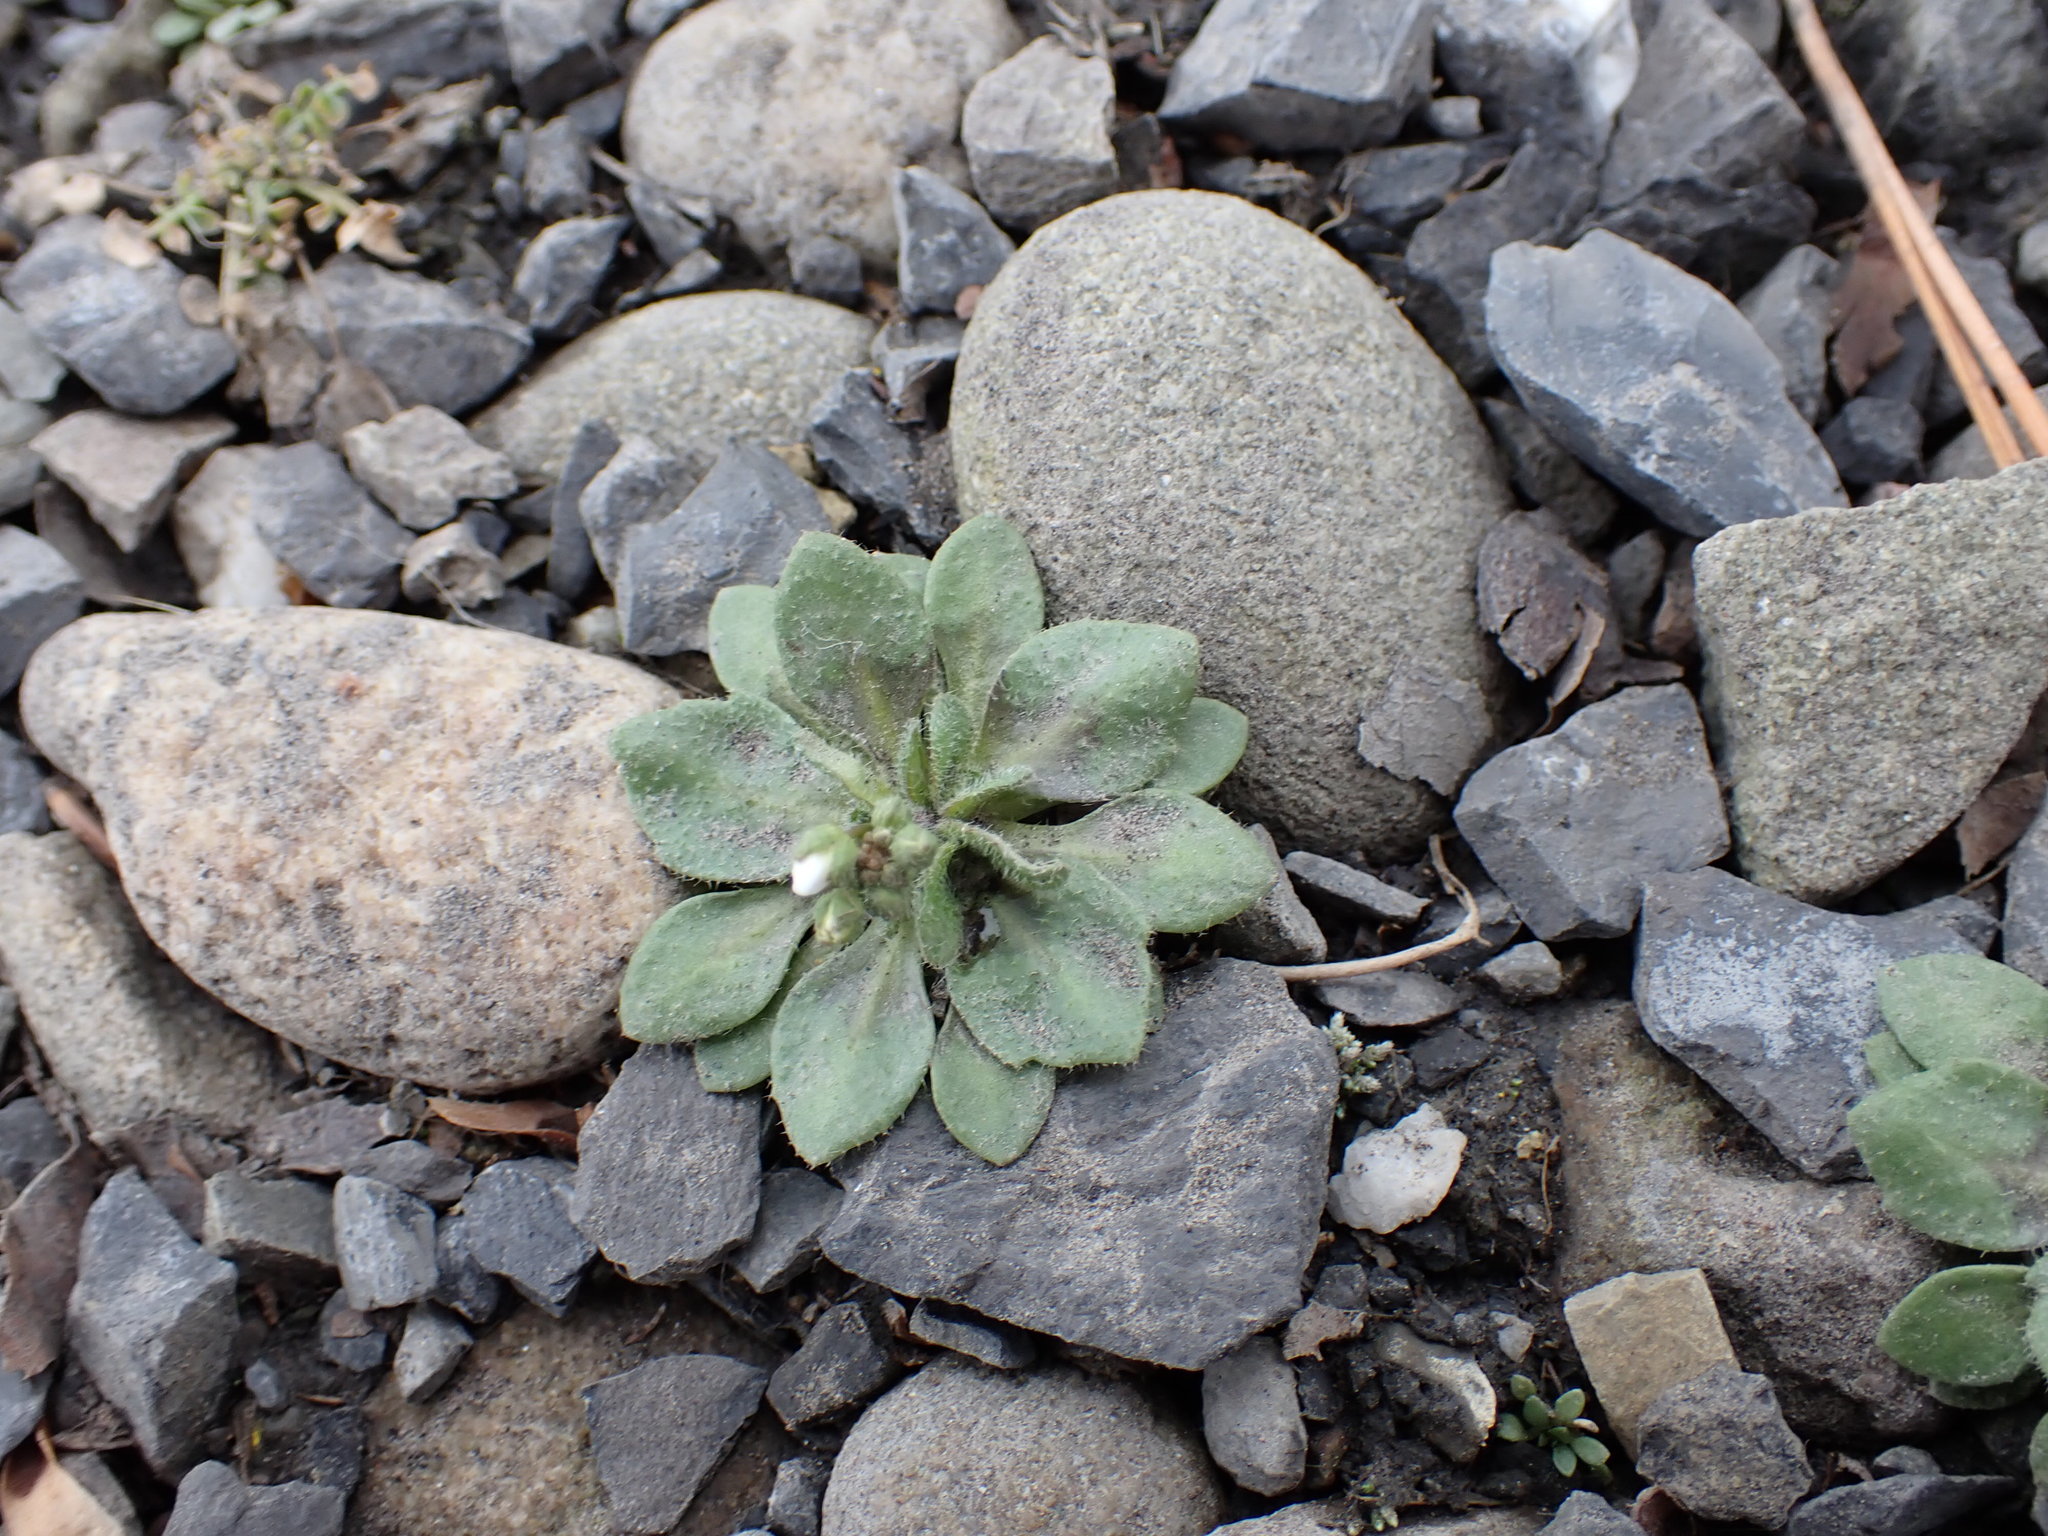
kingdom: Plantae
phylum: Tracheophyta
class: Magnoliopsida
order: Brassicales
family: Brassicaceae
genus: Draba
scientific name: Draba verna
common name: Spring draba
